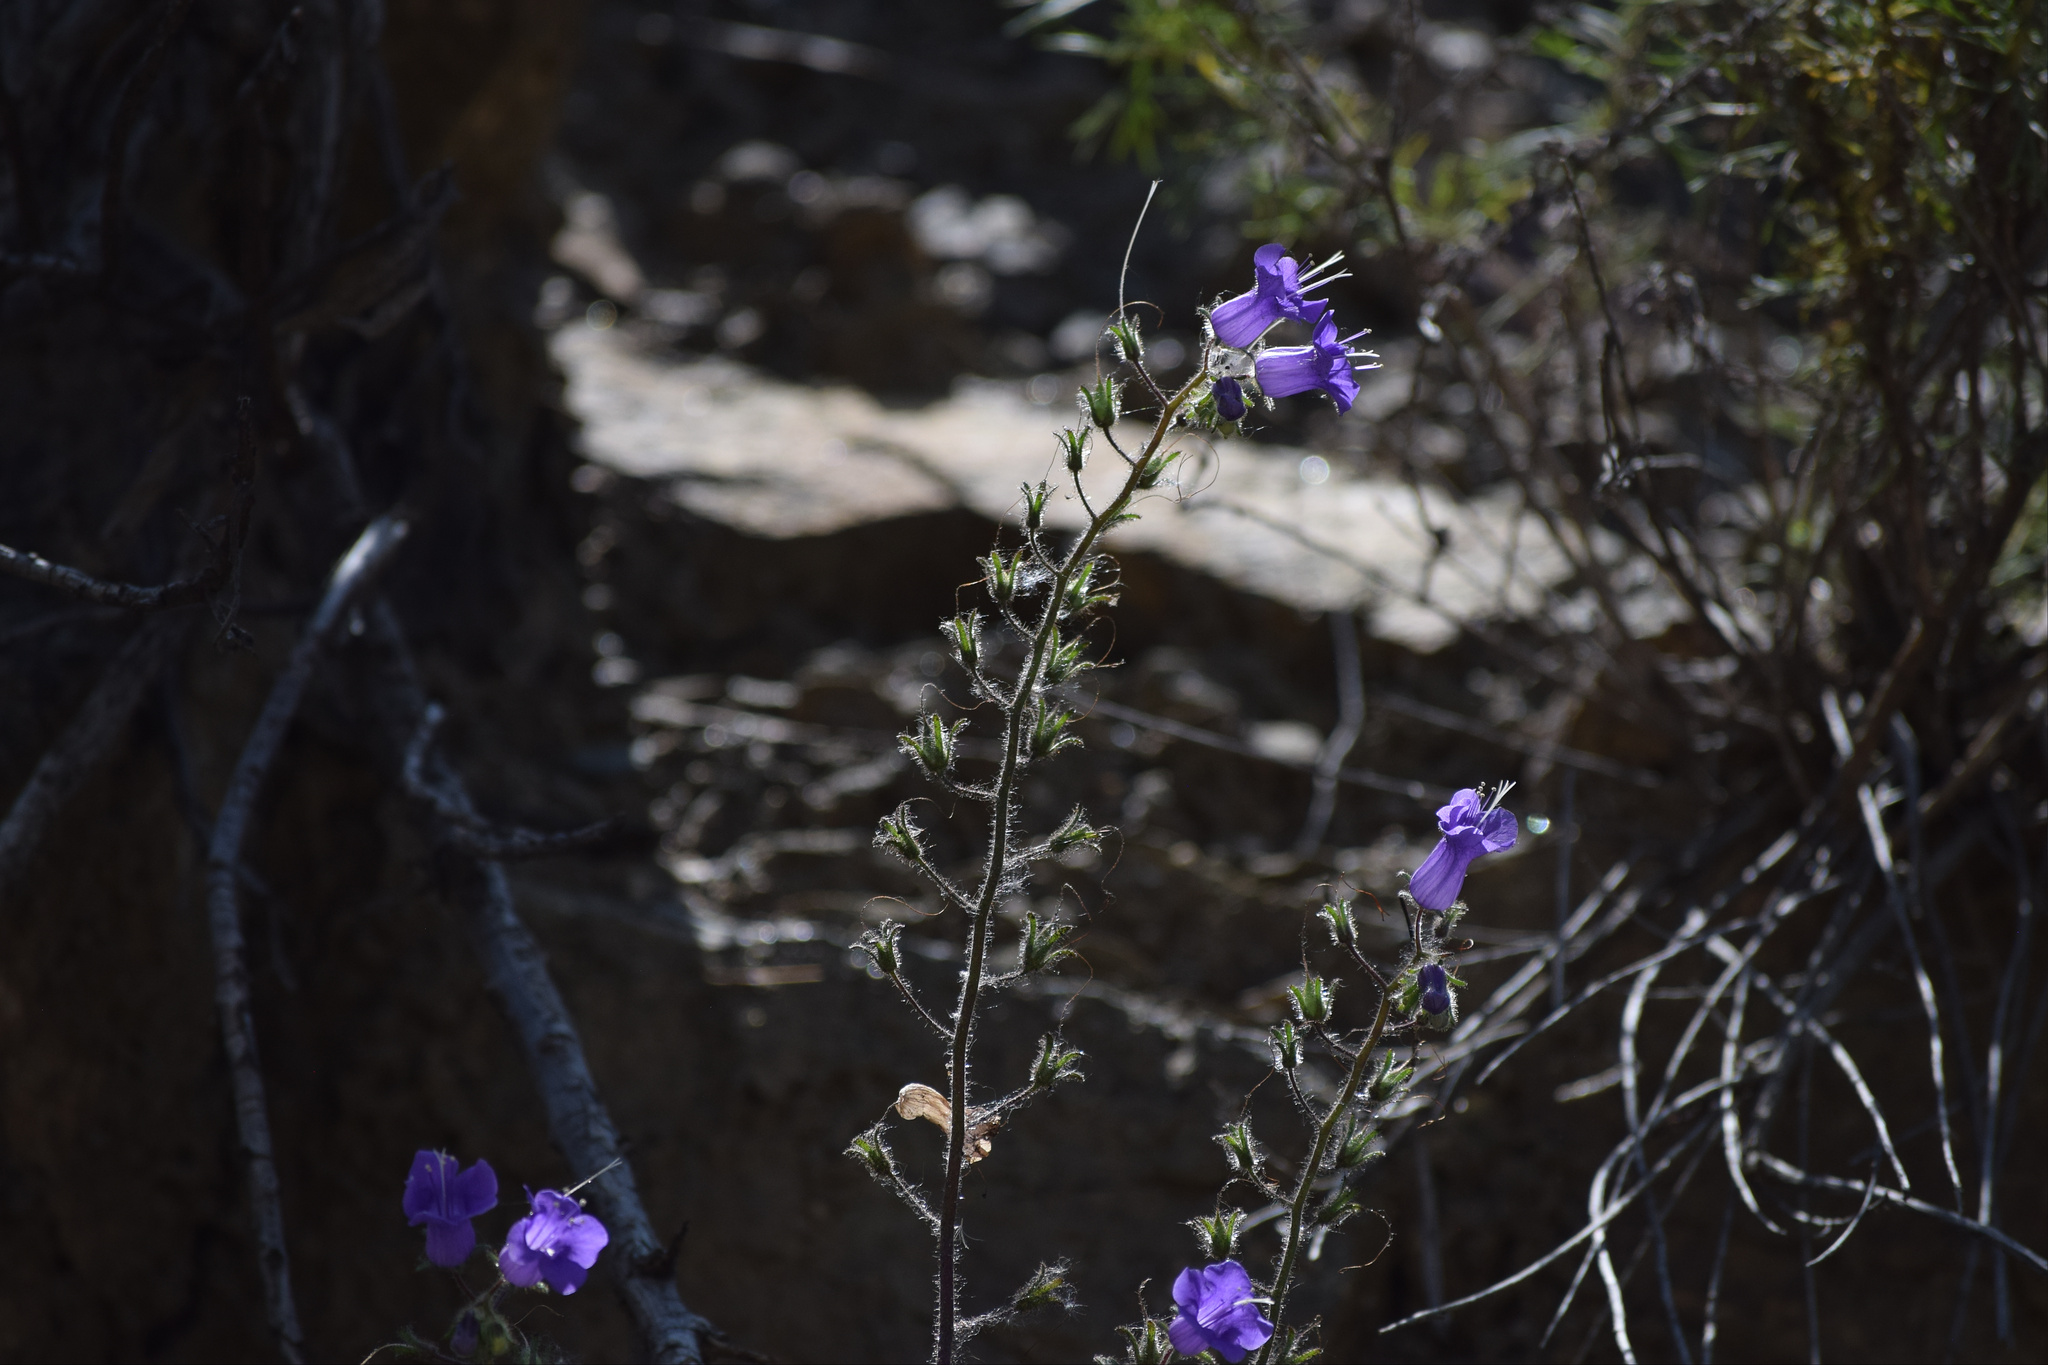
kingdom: Plantae
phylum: Tracheophyta
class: Magnoliopsida
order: Boraginales
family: Hydrophyllaceae
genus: Phacelia
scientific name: Phacelia minor
